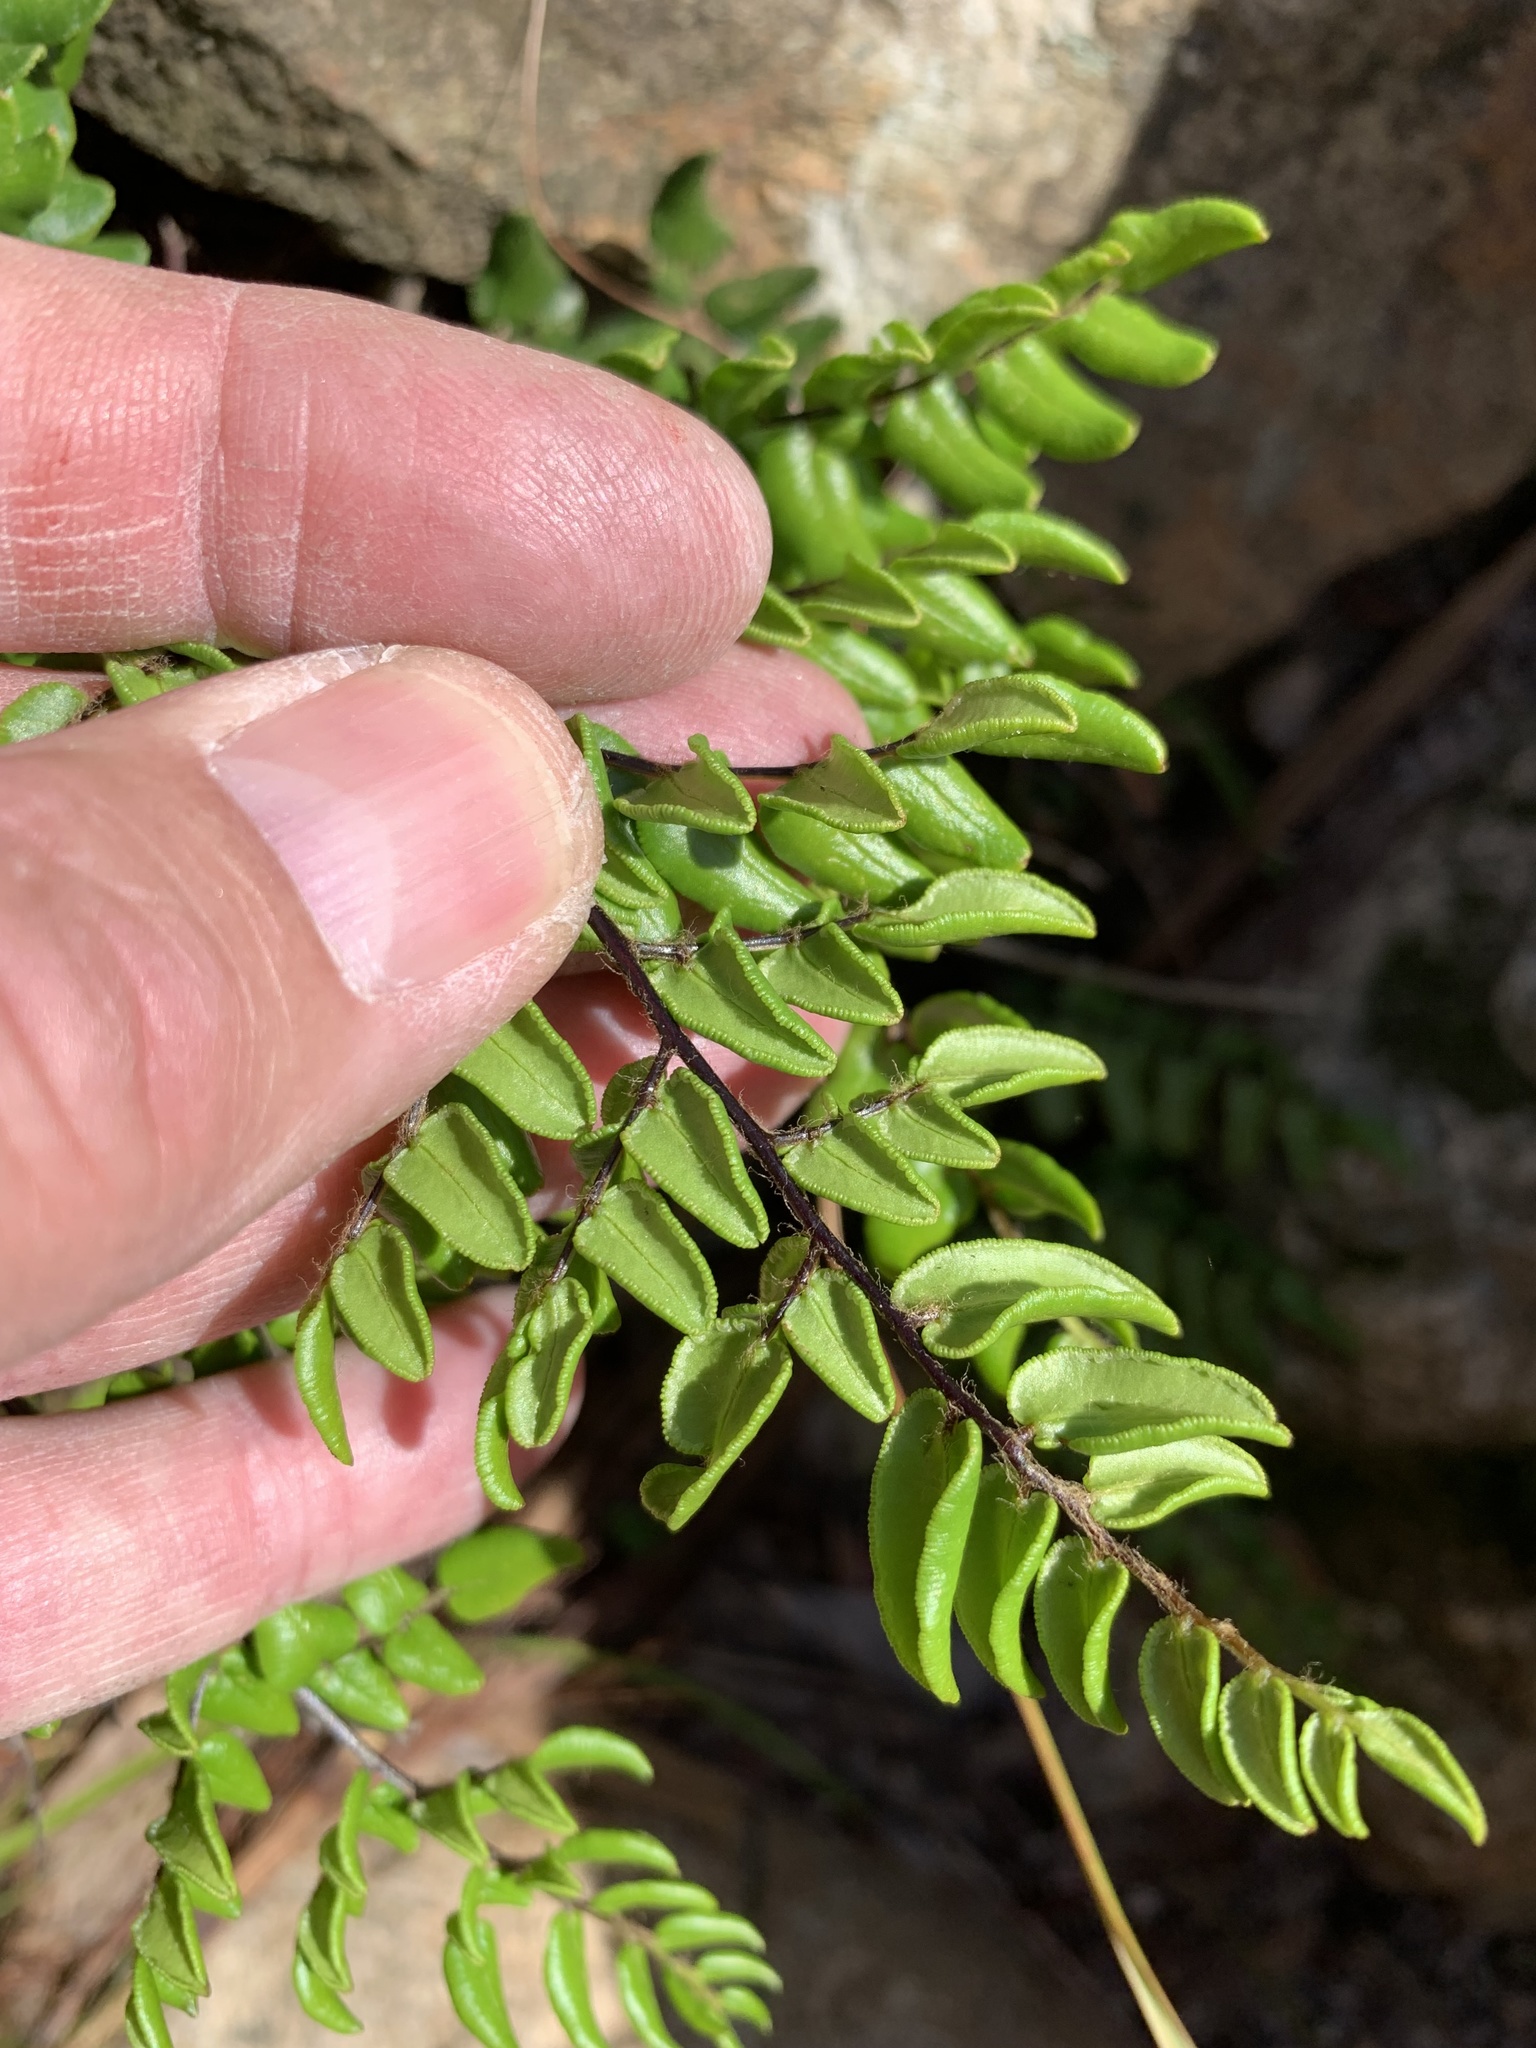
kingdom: Plantae
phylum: Tracheophyta
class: Polypodiopsida
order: Polypodiales
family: Pteridaceae
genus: Pellaea
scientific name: Pellaea pteroides
